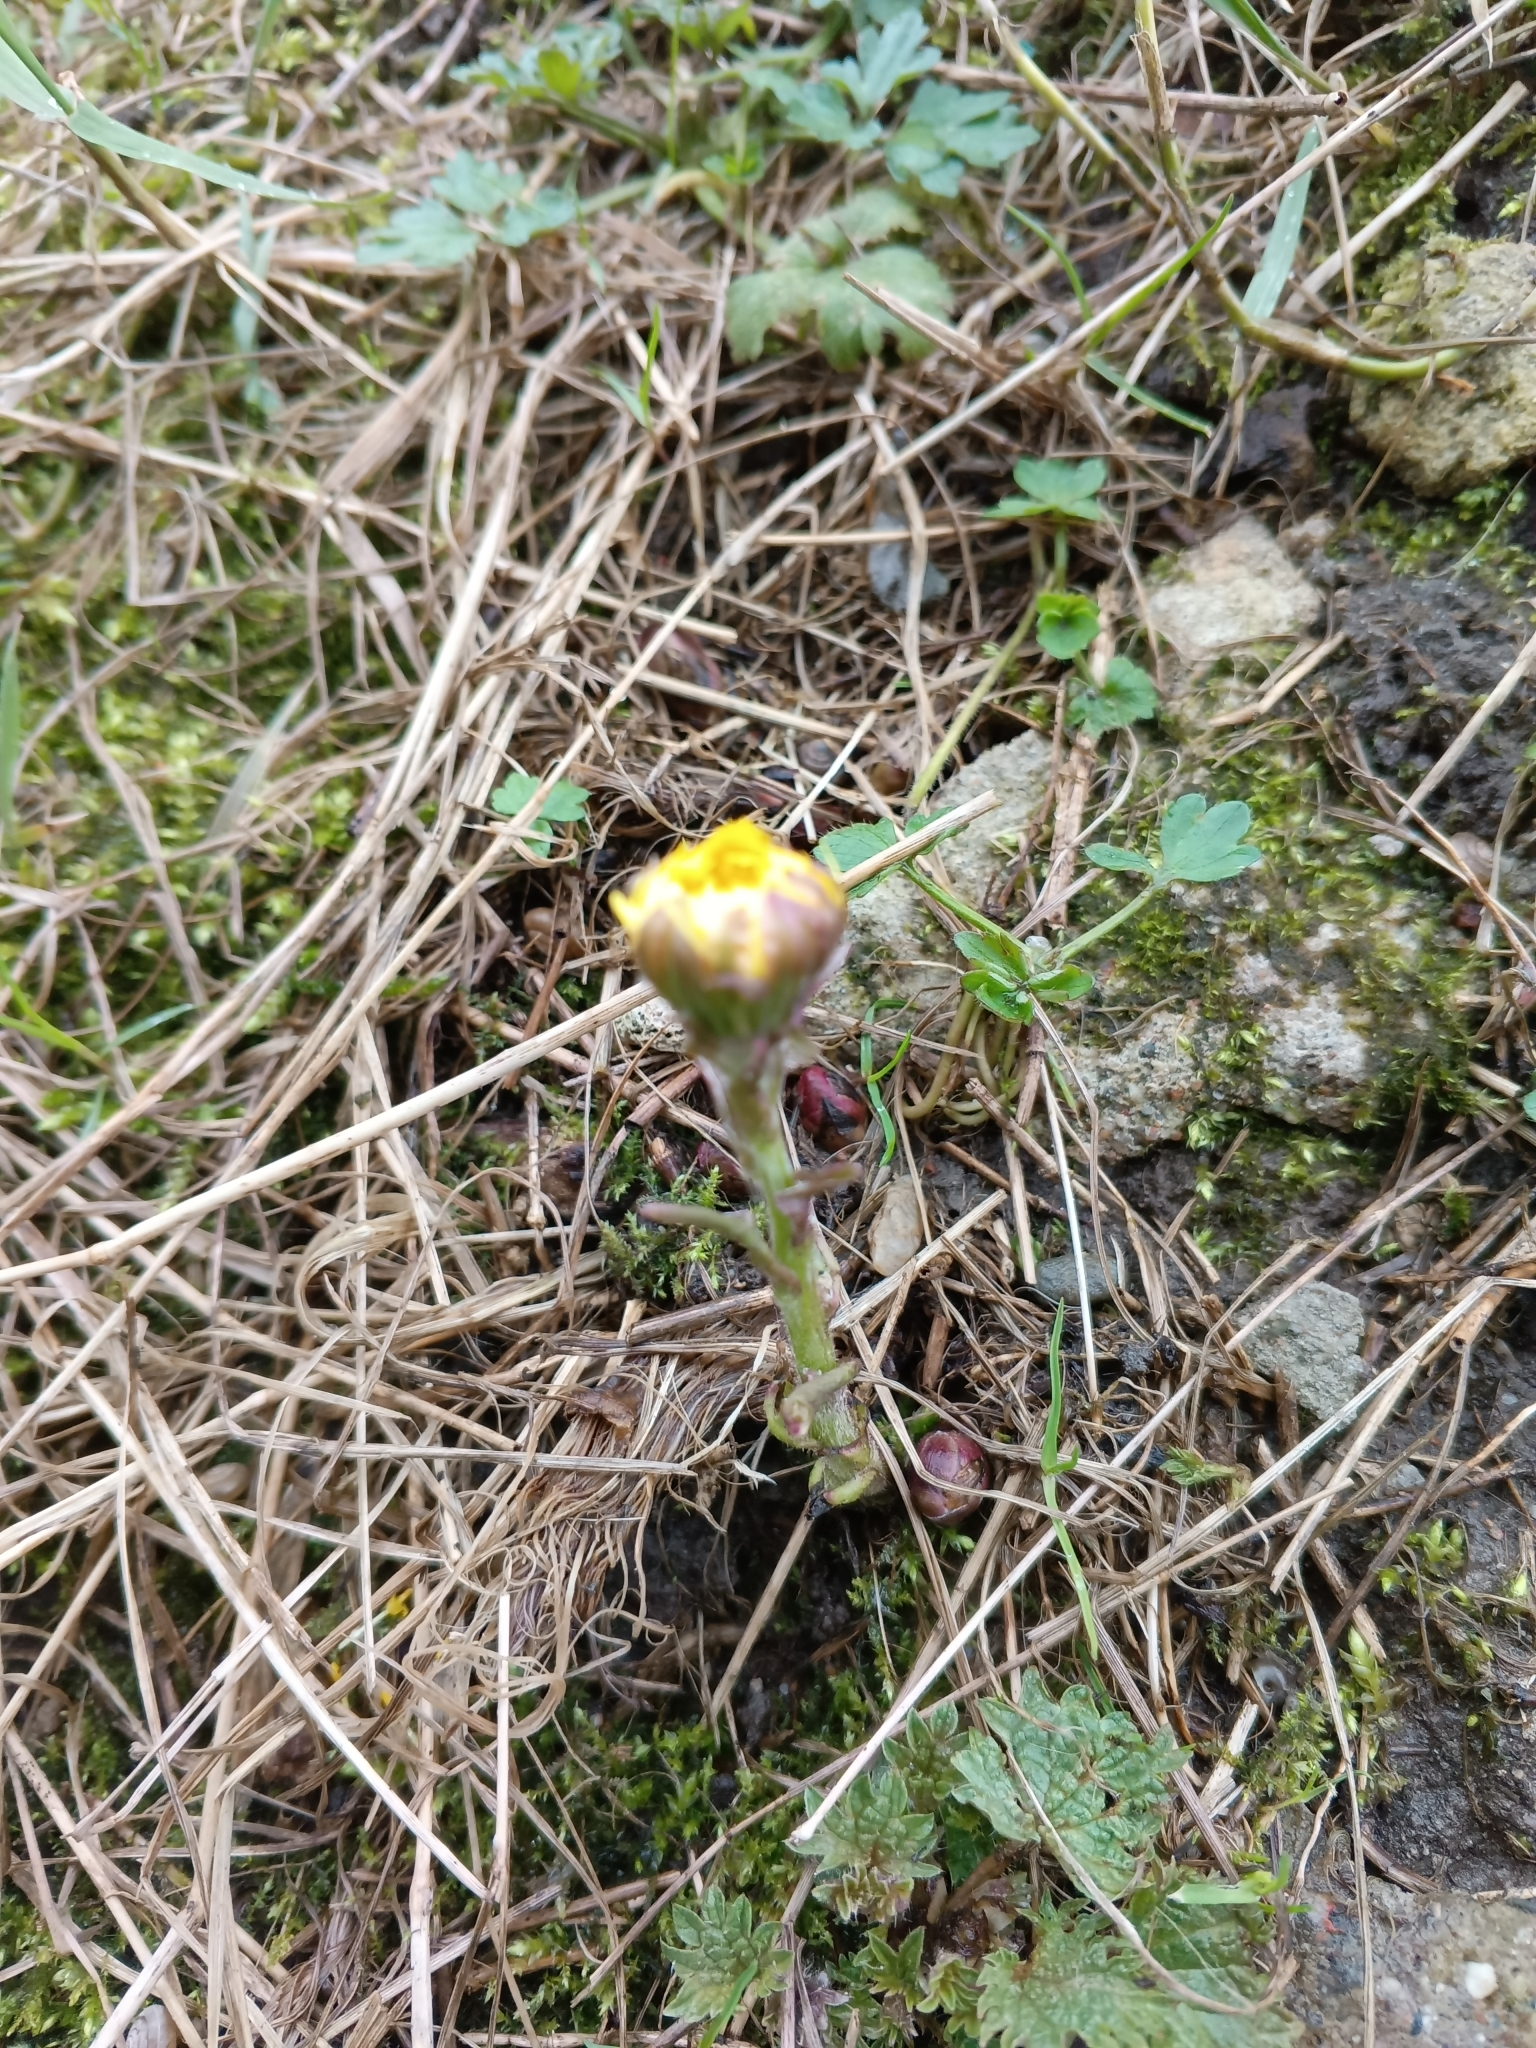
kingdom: Plantae
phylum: Tracheophyta
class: Magnoliopsida
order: Asterales
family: Asteraceae
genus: Tussilago
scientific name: Tussilago farfara
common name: Coltsfoot
